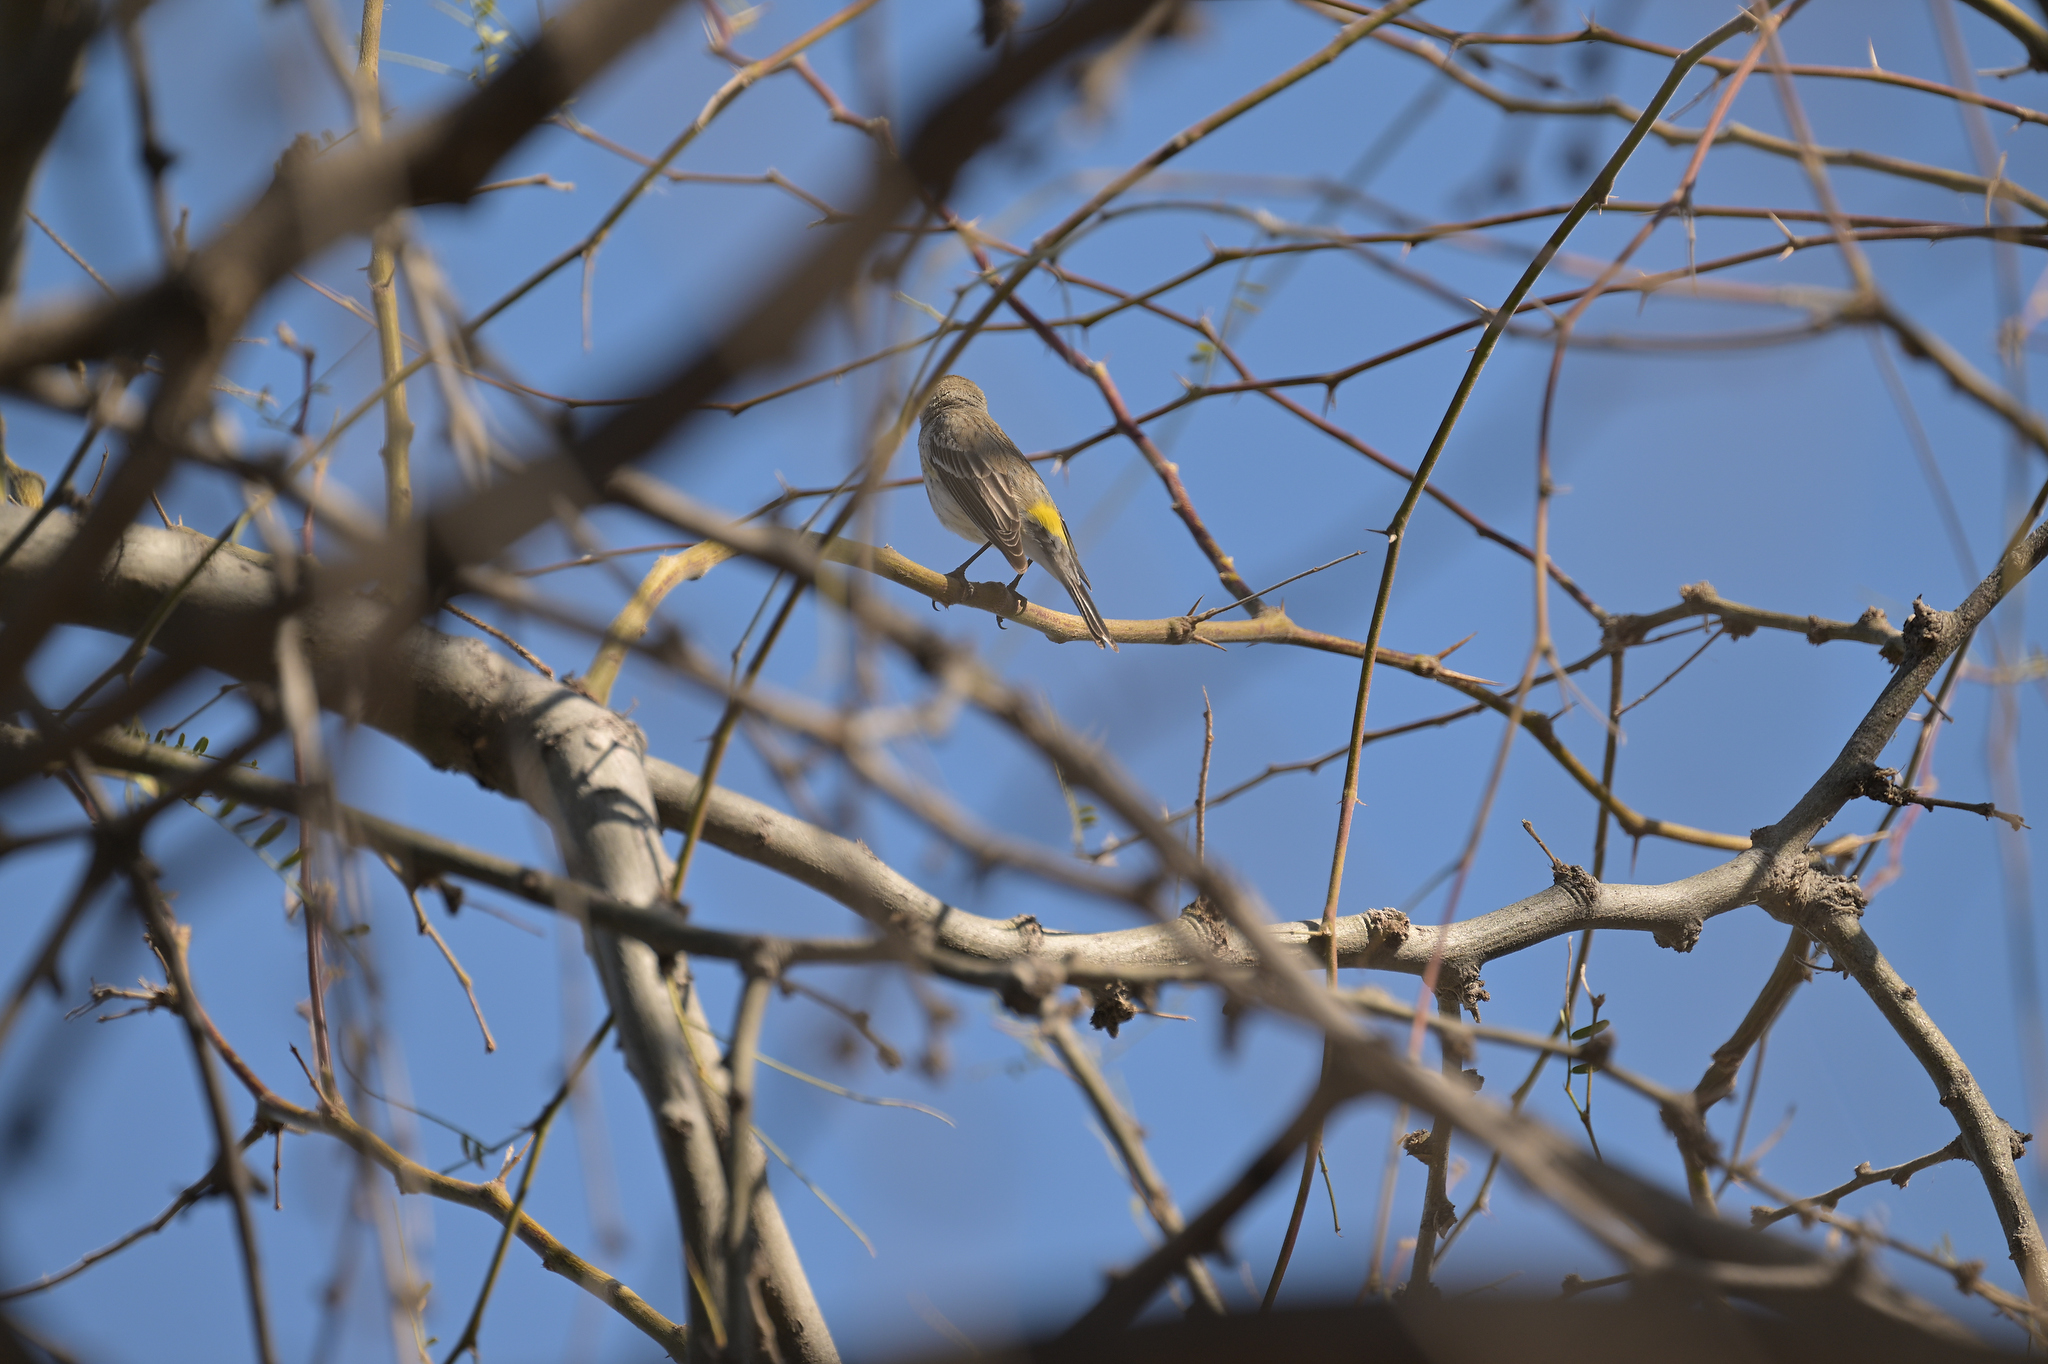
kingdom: Animalia
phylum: Chordata
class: Aves
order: Passeriformes
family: Parulidae
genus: Setophaga
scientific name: Setophaga coronata
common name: Myrtle warbler
